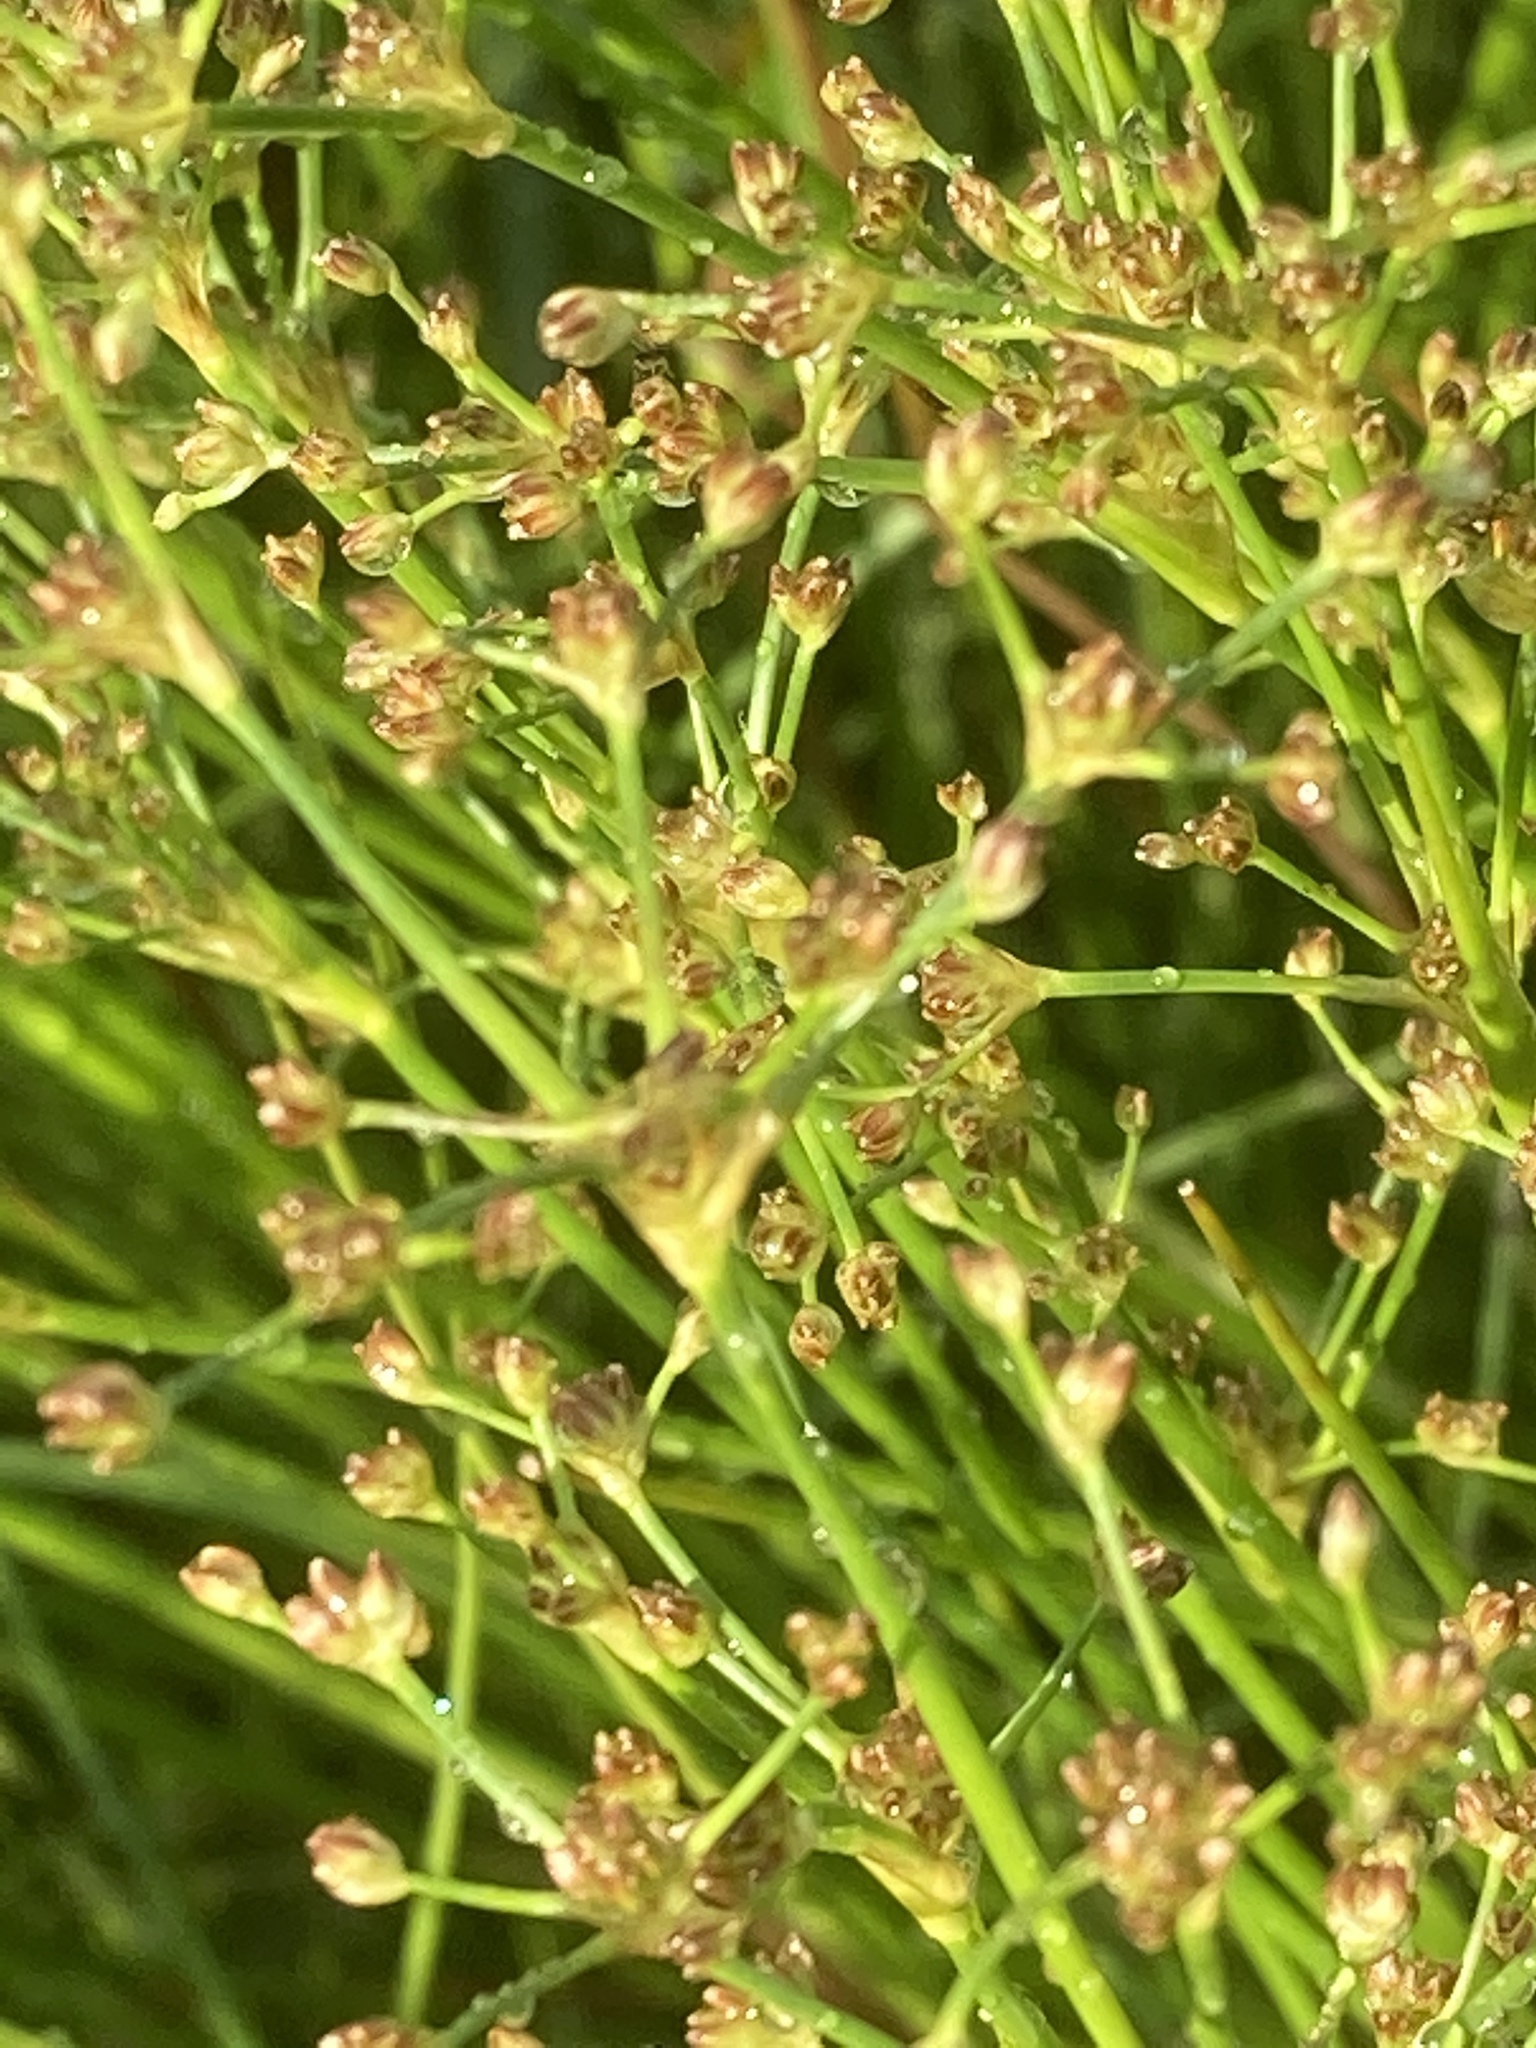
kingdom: Plantae
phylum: Tracheophyta
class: Liliopsida
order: Poales
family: Juncaceae
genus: Juncus
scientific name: Juncus subnodulosus
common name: Blunt-flowered rush
